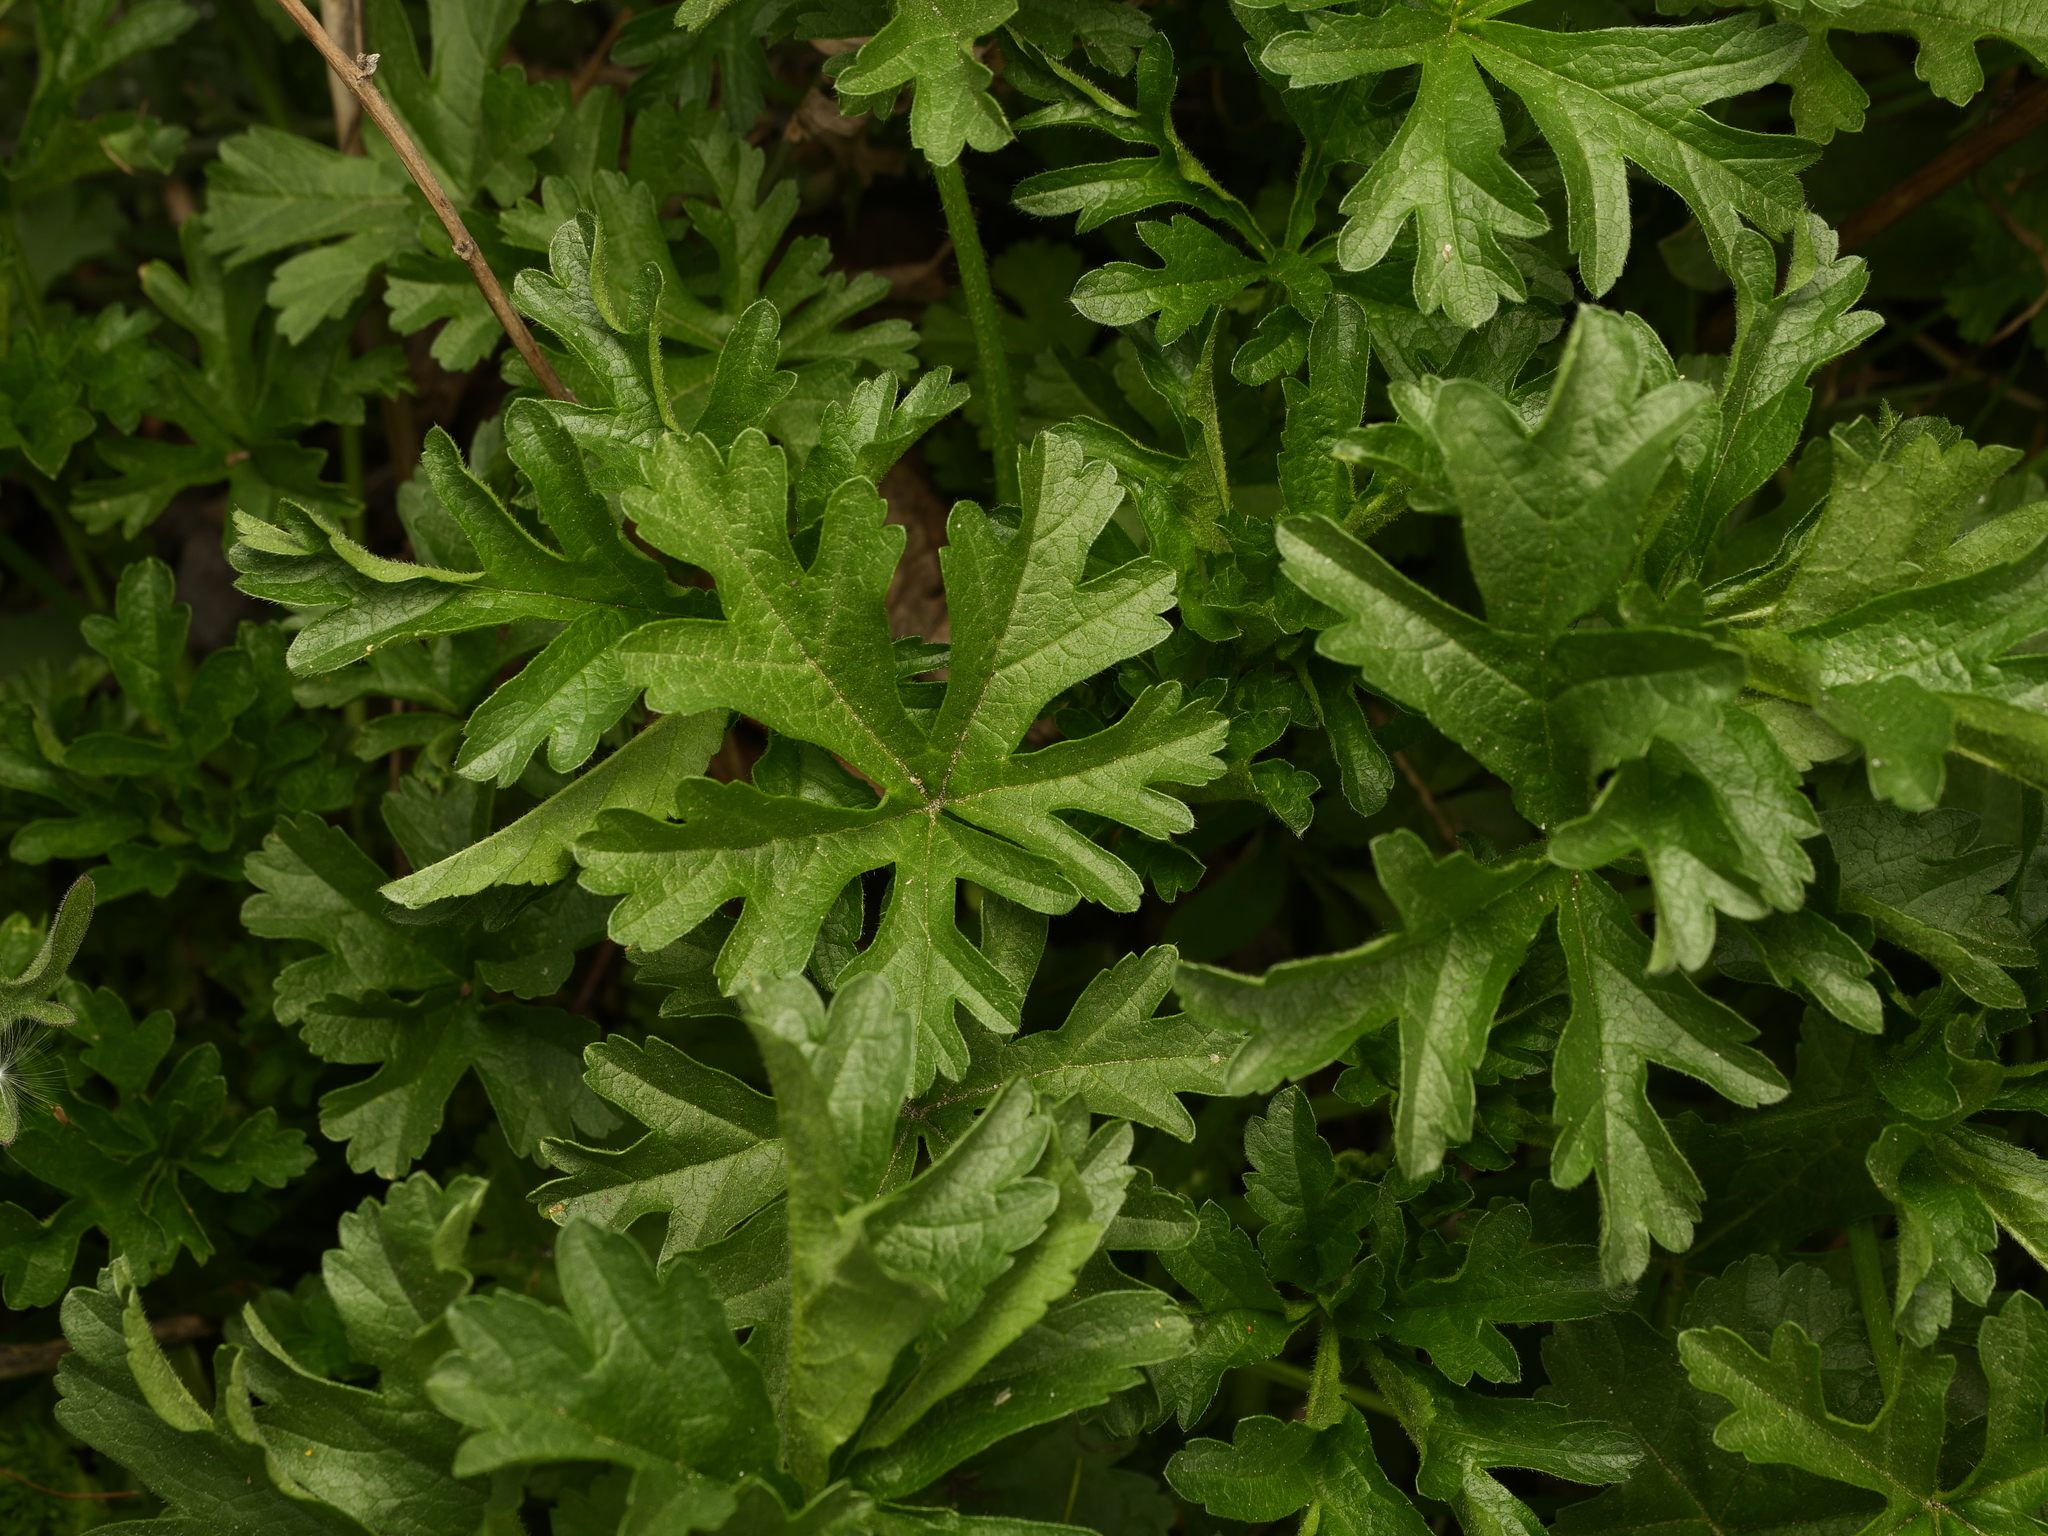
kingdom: Plantae
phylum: Tracheophyta
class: Magnoliopsida
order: Malvales
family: Malvaceae
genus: Malva
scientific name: Malva moschata
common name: Musk mallow
